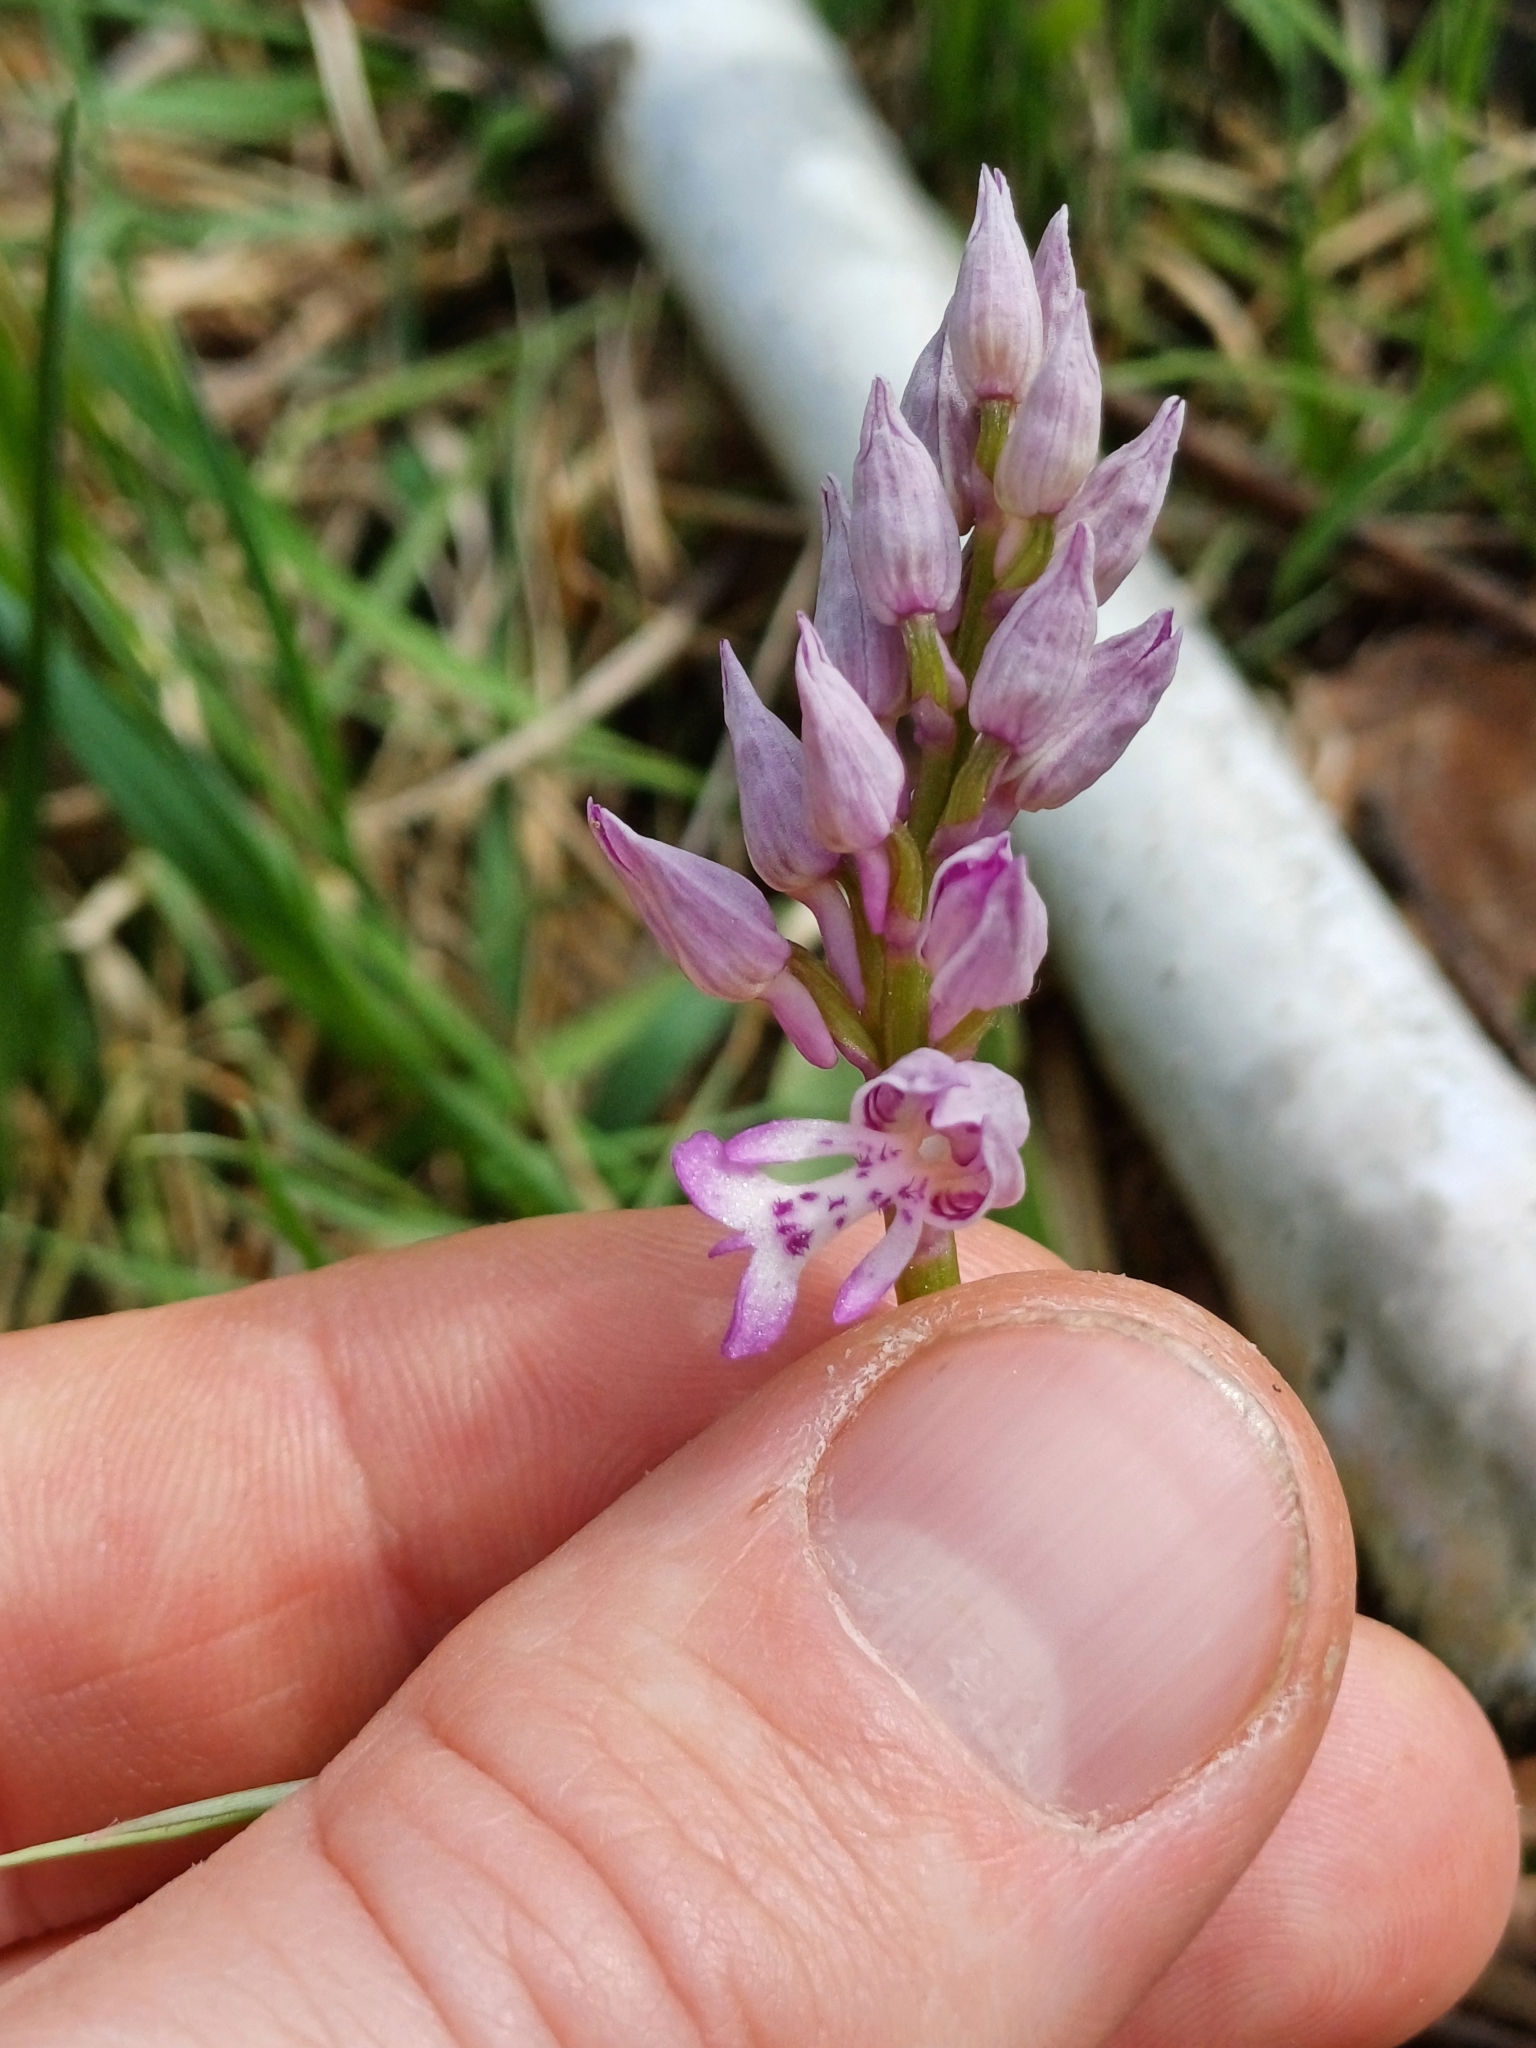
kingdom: Plantae
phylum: Tracheophyta
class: Liliopsida
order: Asparagales
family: Orchidaceae
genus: Orchis
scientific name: Orchis militaris
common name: Military orchid
